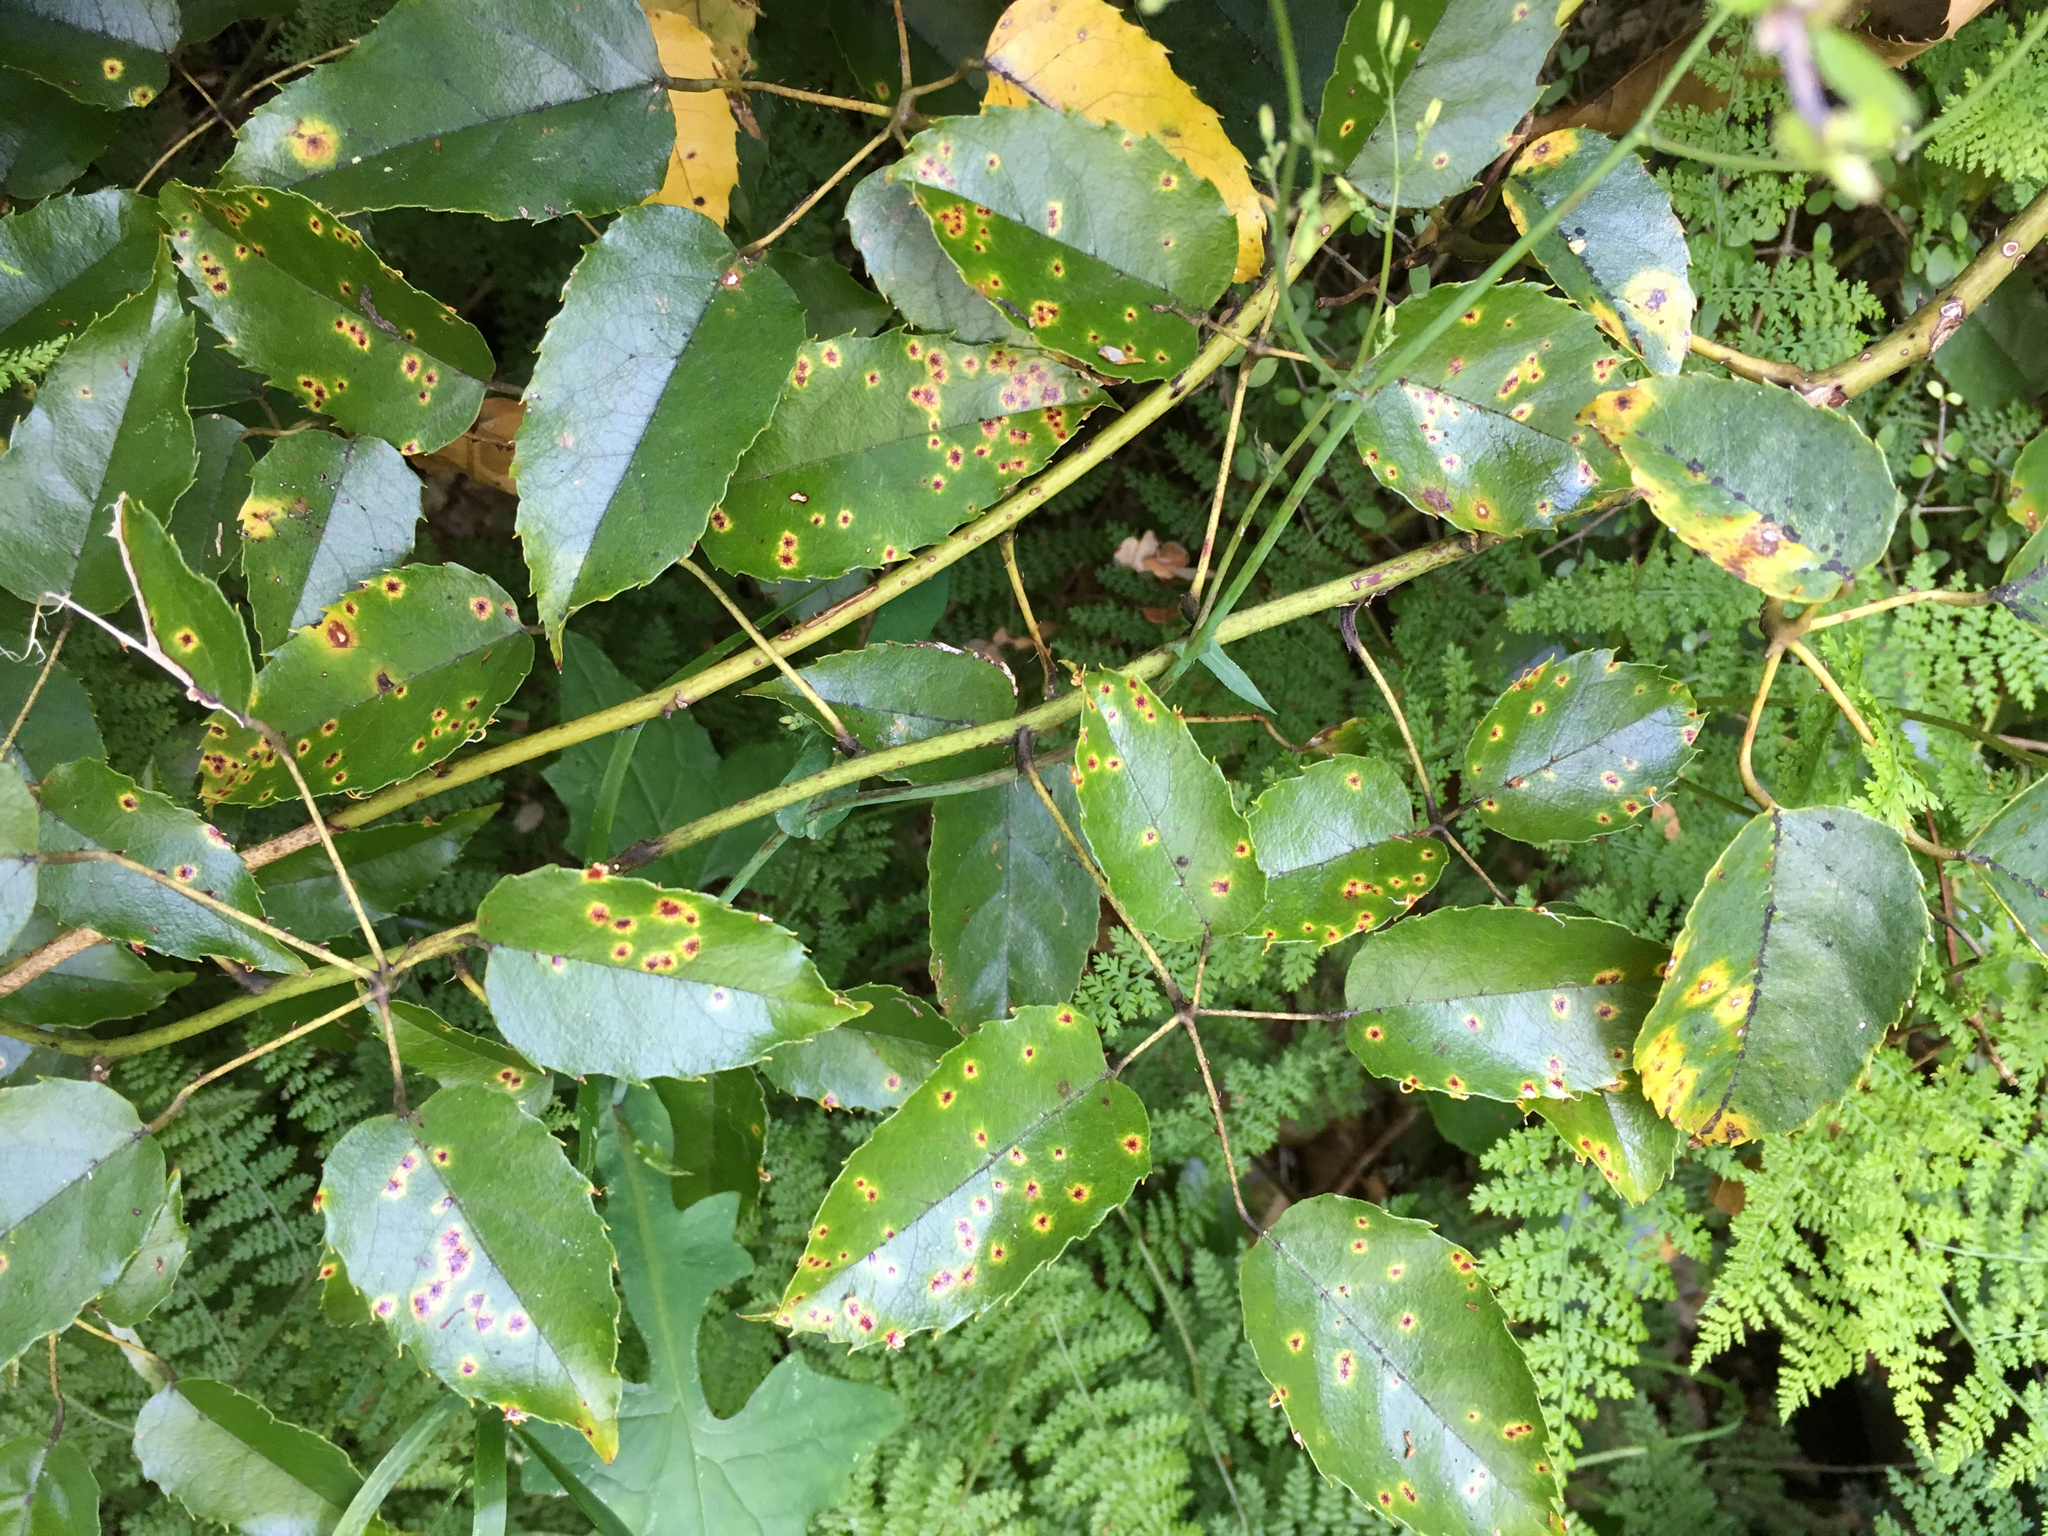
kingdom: Fungi
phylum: Basidiomycota
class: Pucciniomycetes
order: Pucciniales
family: Phragmidiaceae
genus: Hamaspora
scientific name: Hamaspora australis
